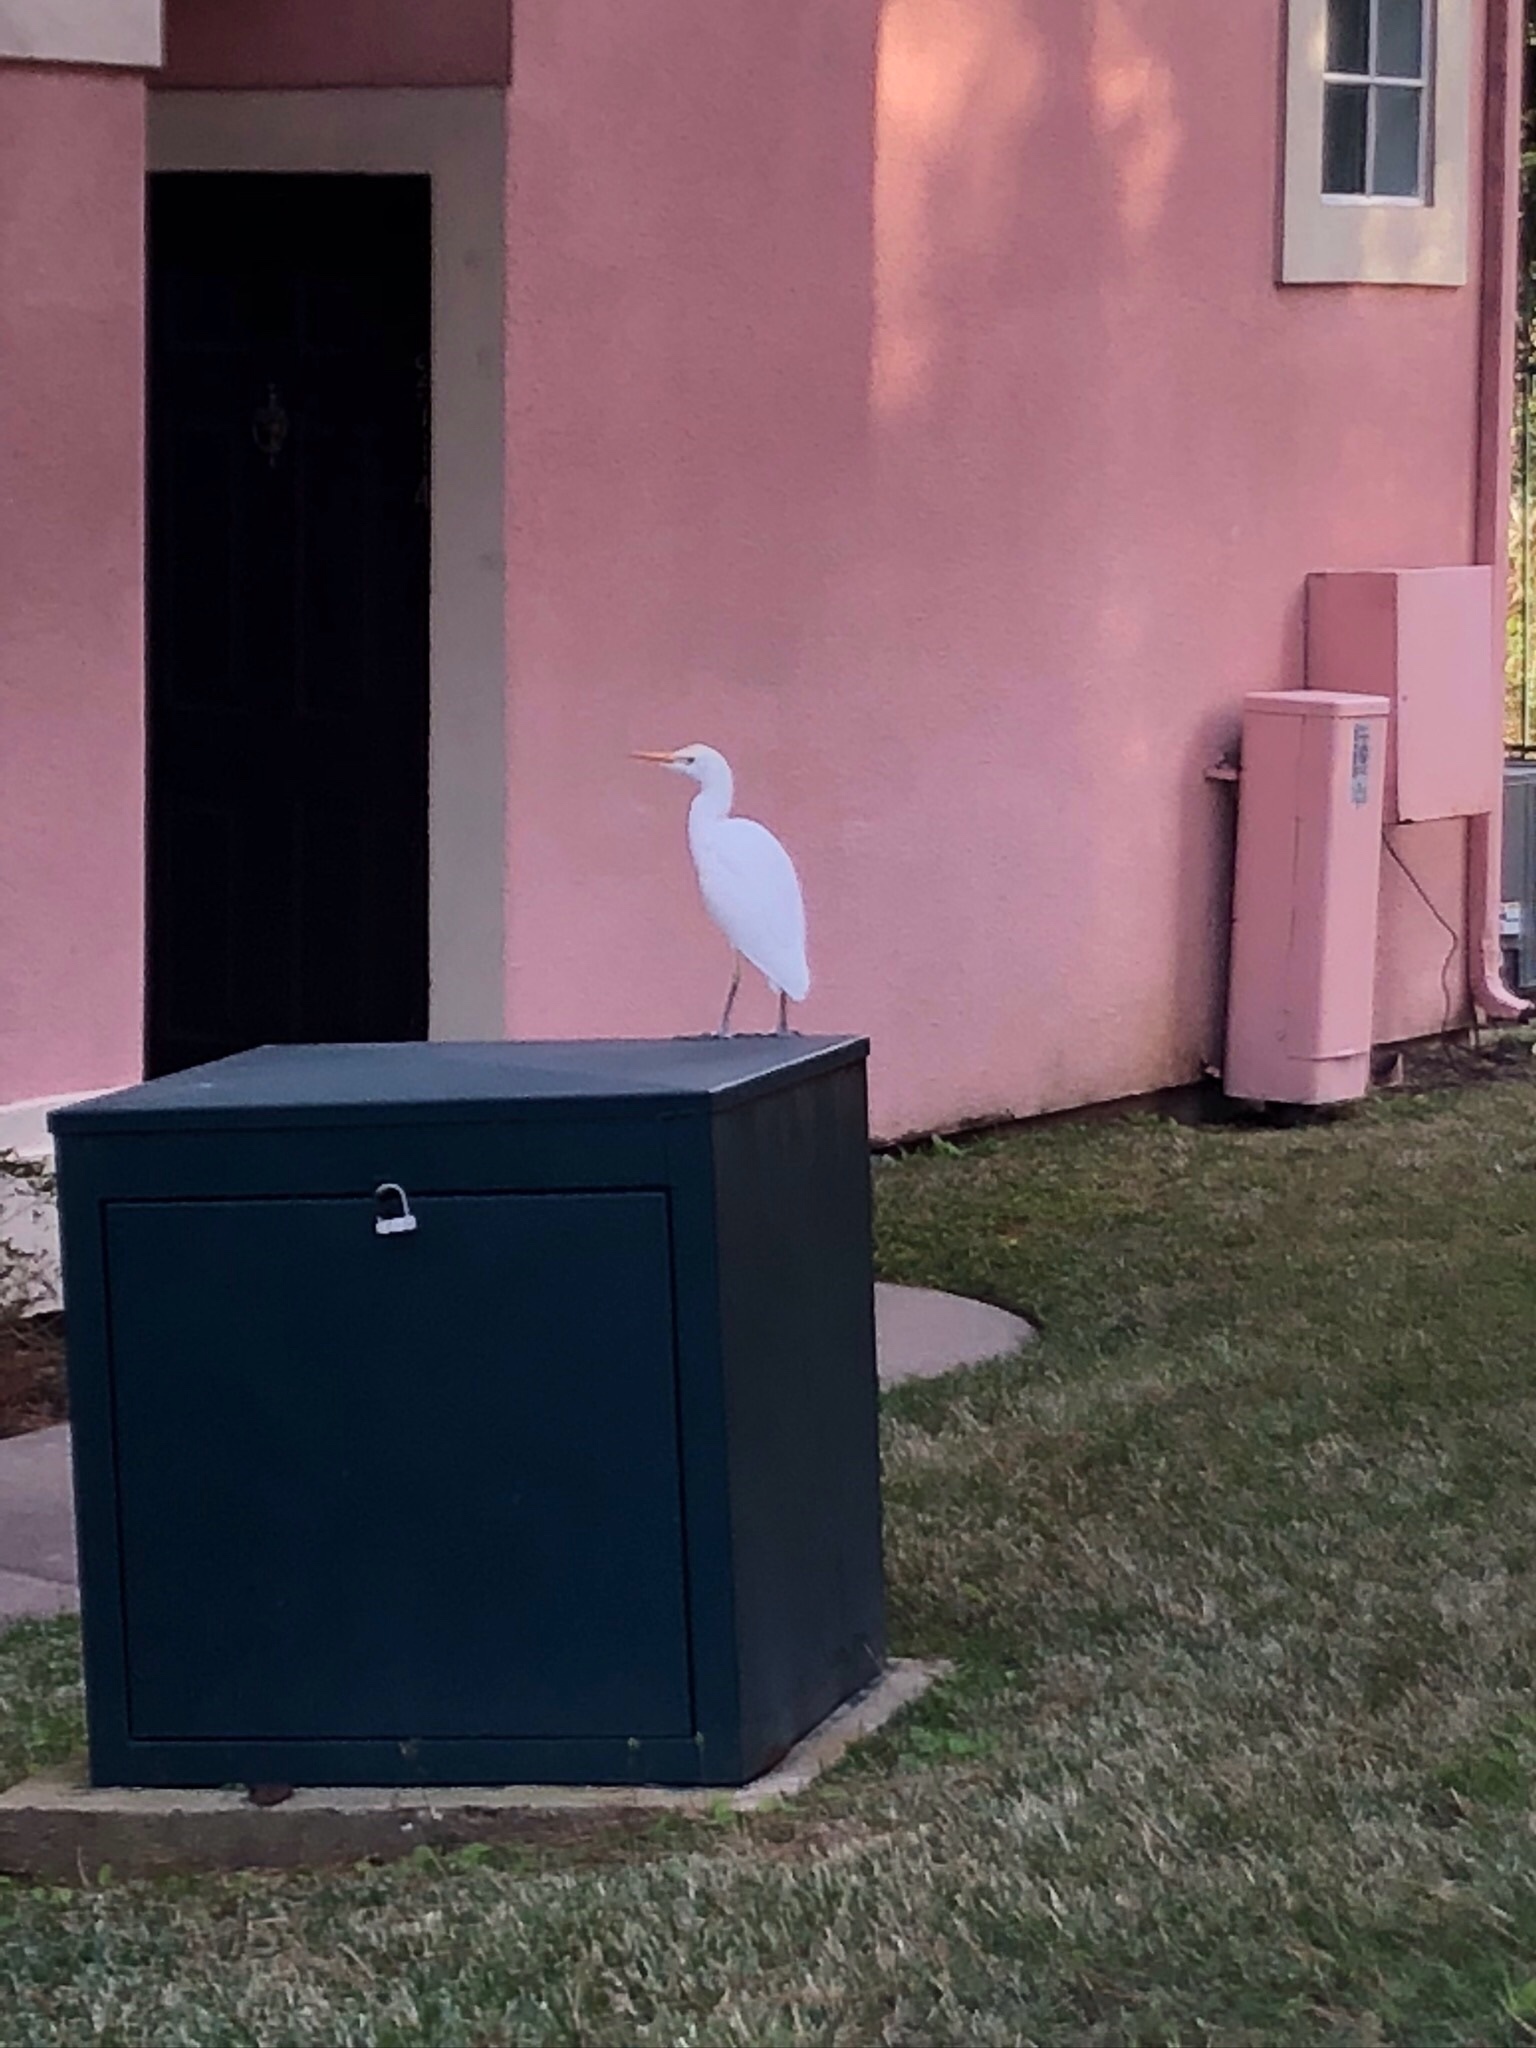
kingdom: Animalia
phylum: Chordata
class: Aves
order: Pelecaniformes
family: Ardeidae
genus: Bubulcus
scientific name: Bubulcus ibis
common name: Cattle egret
